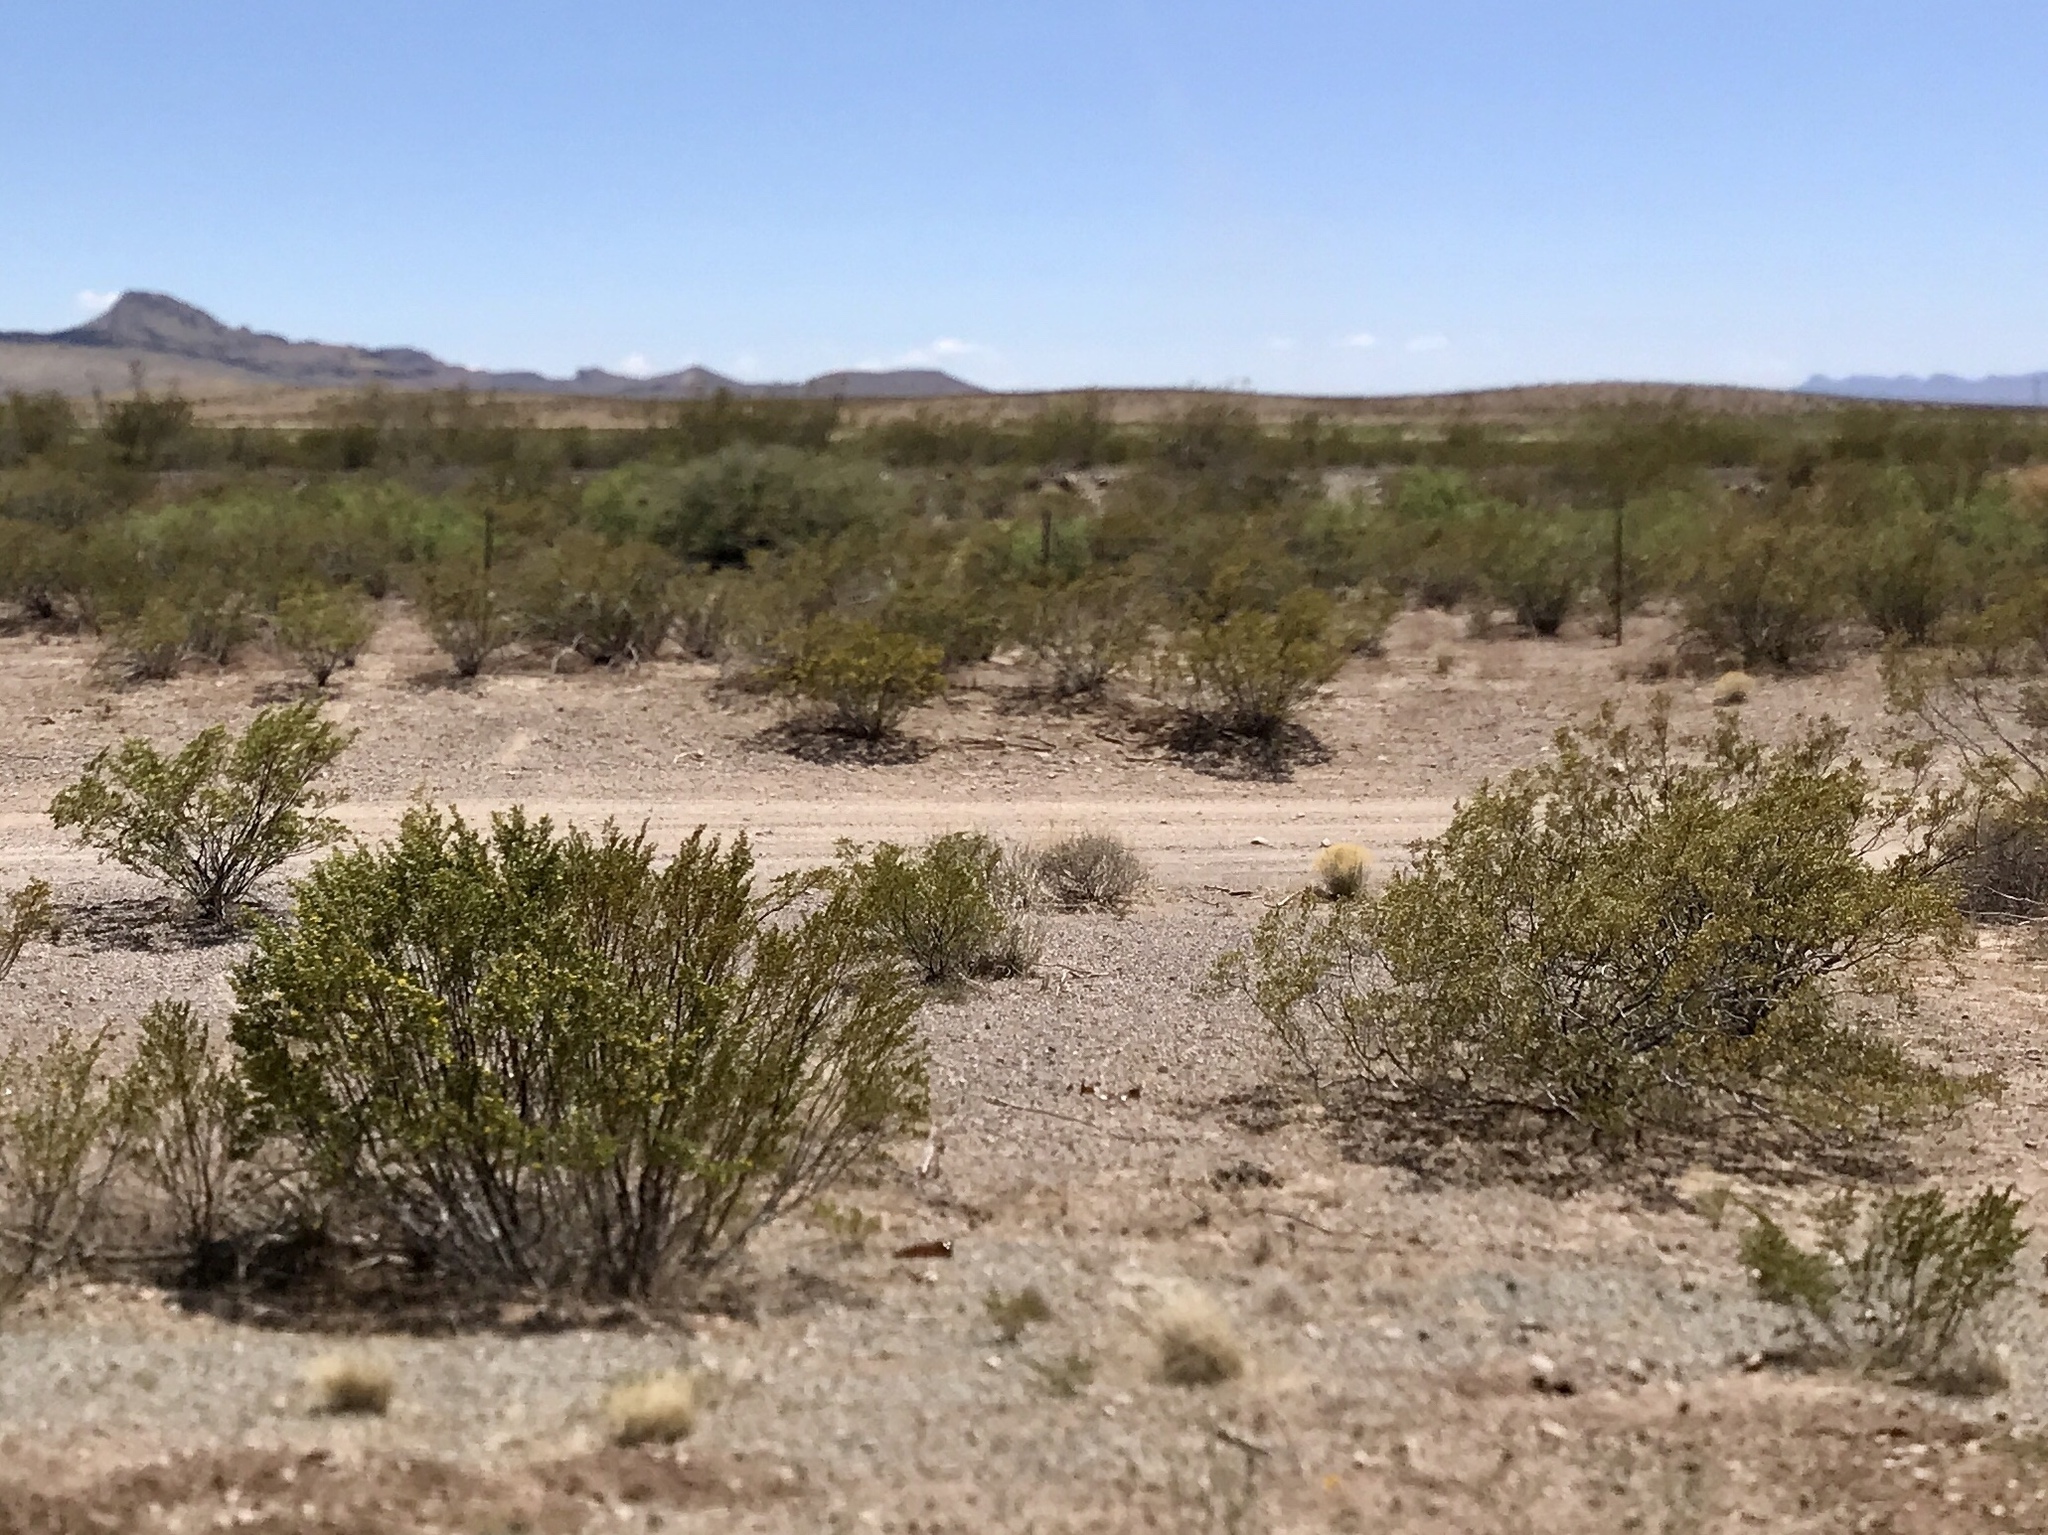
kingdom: Plantae
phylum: Tracheophyta
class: Magnoliopsida
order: Zygophyllales
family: Zygophyllaceae
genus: Larrea
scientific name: Larrea tridentata
